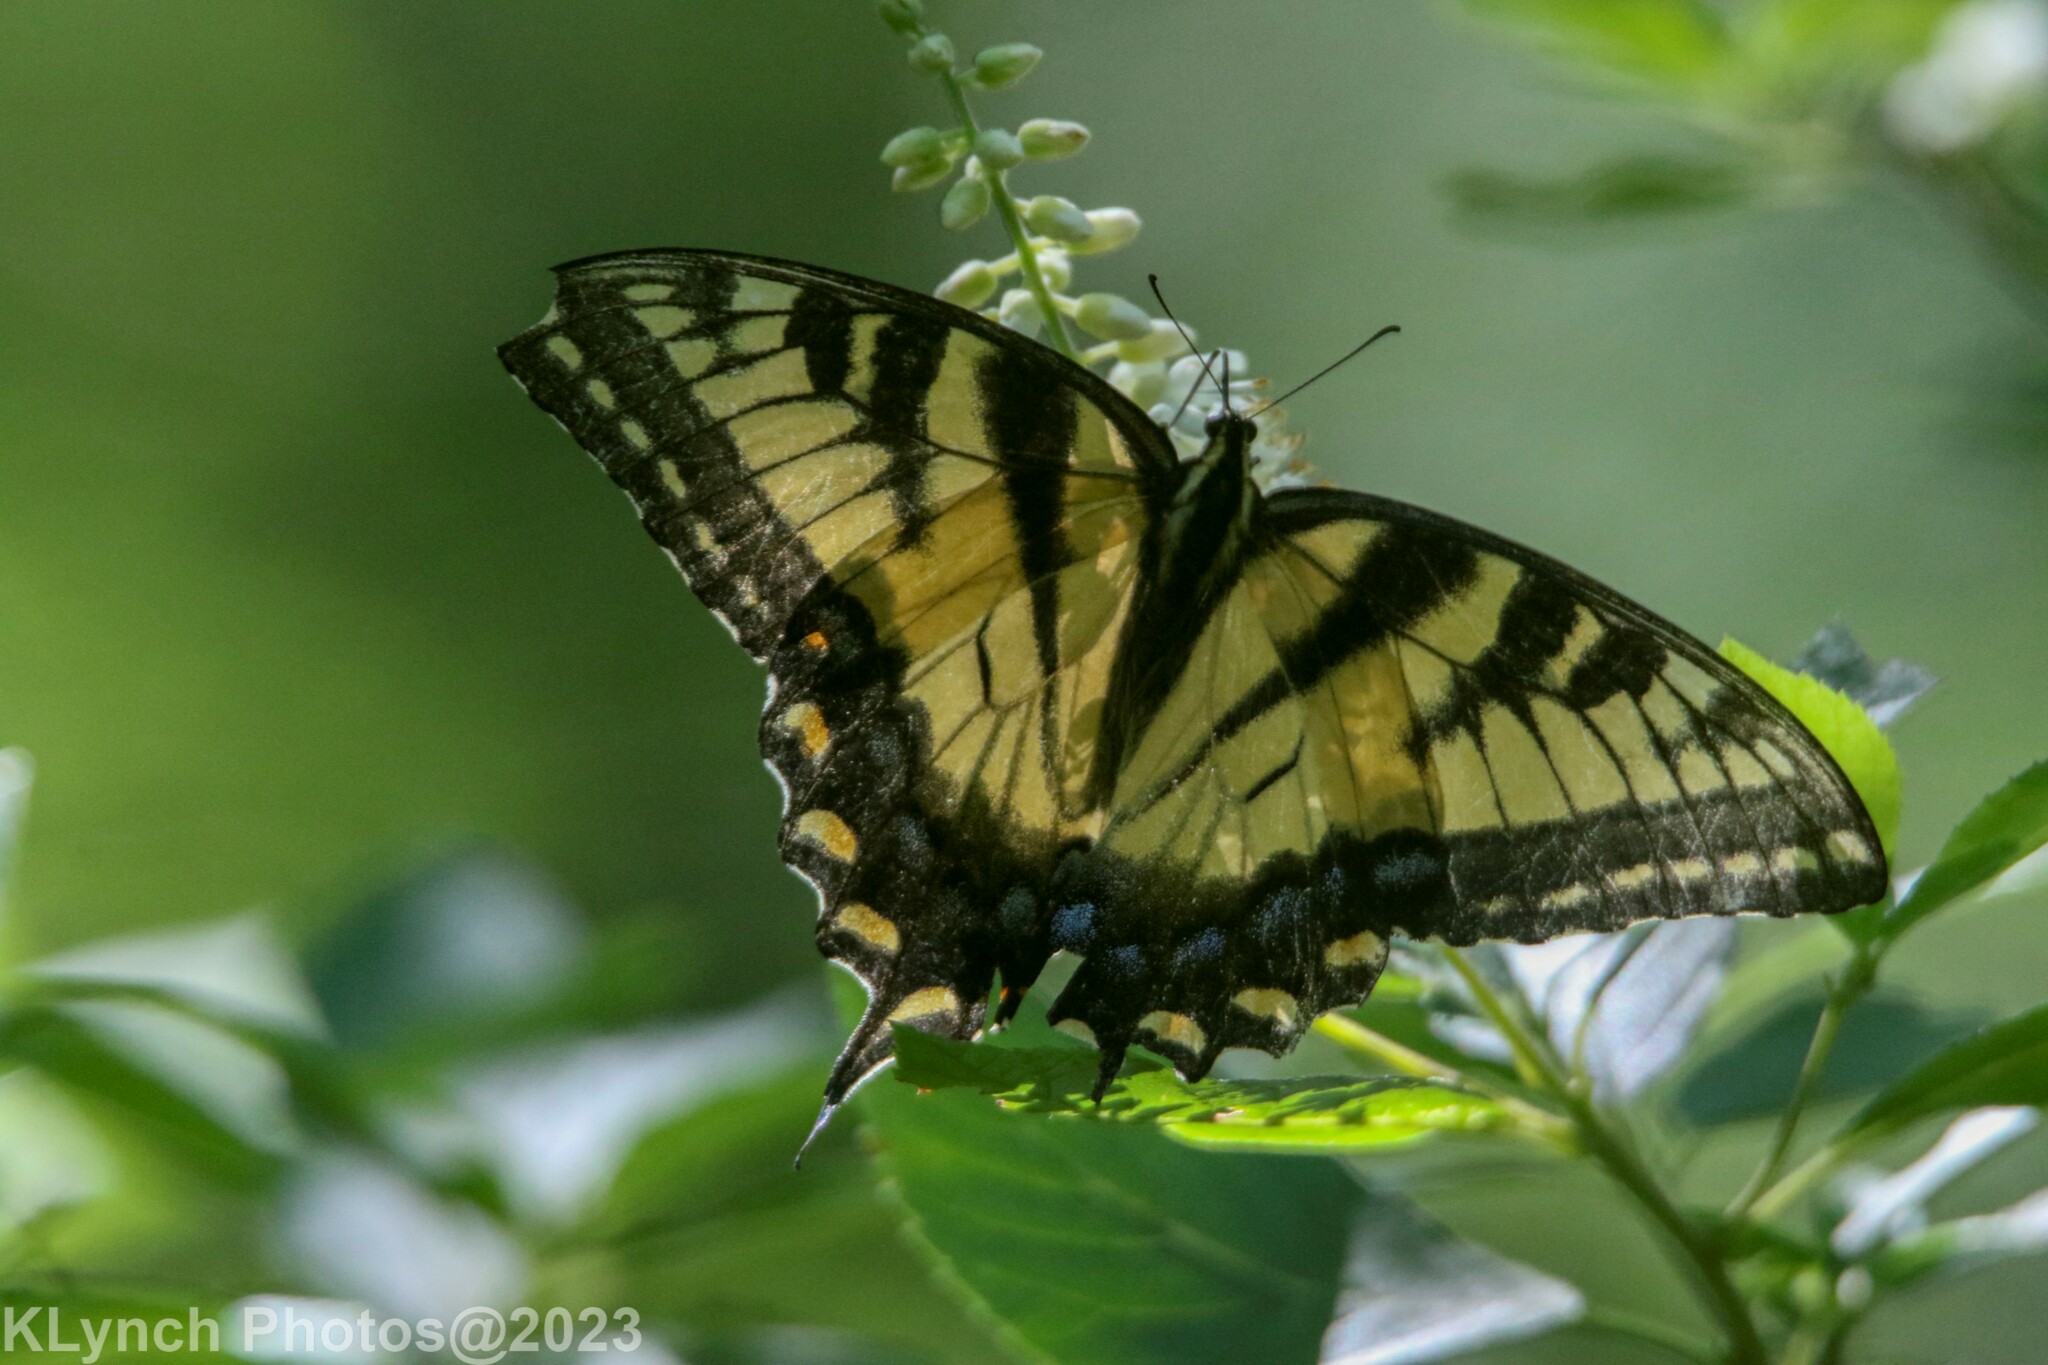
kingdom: Animalia
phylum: Arthropoda
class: Insecta
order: Lepidoptera
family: Papilionidae
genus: Papilio
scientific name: Papilio glaucus
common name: Tiger swallowtail
